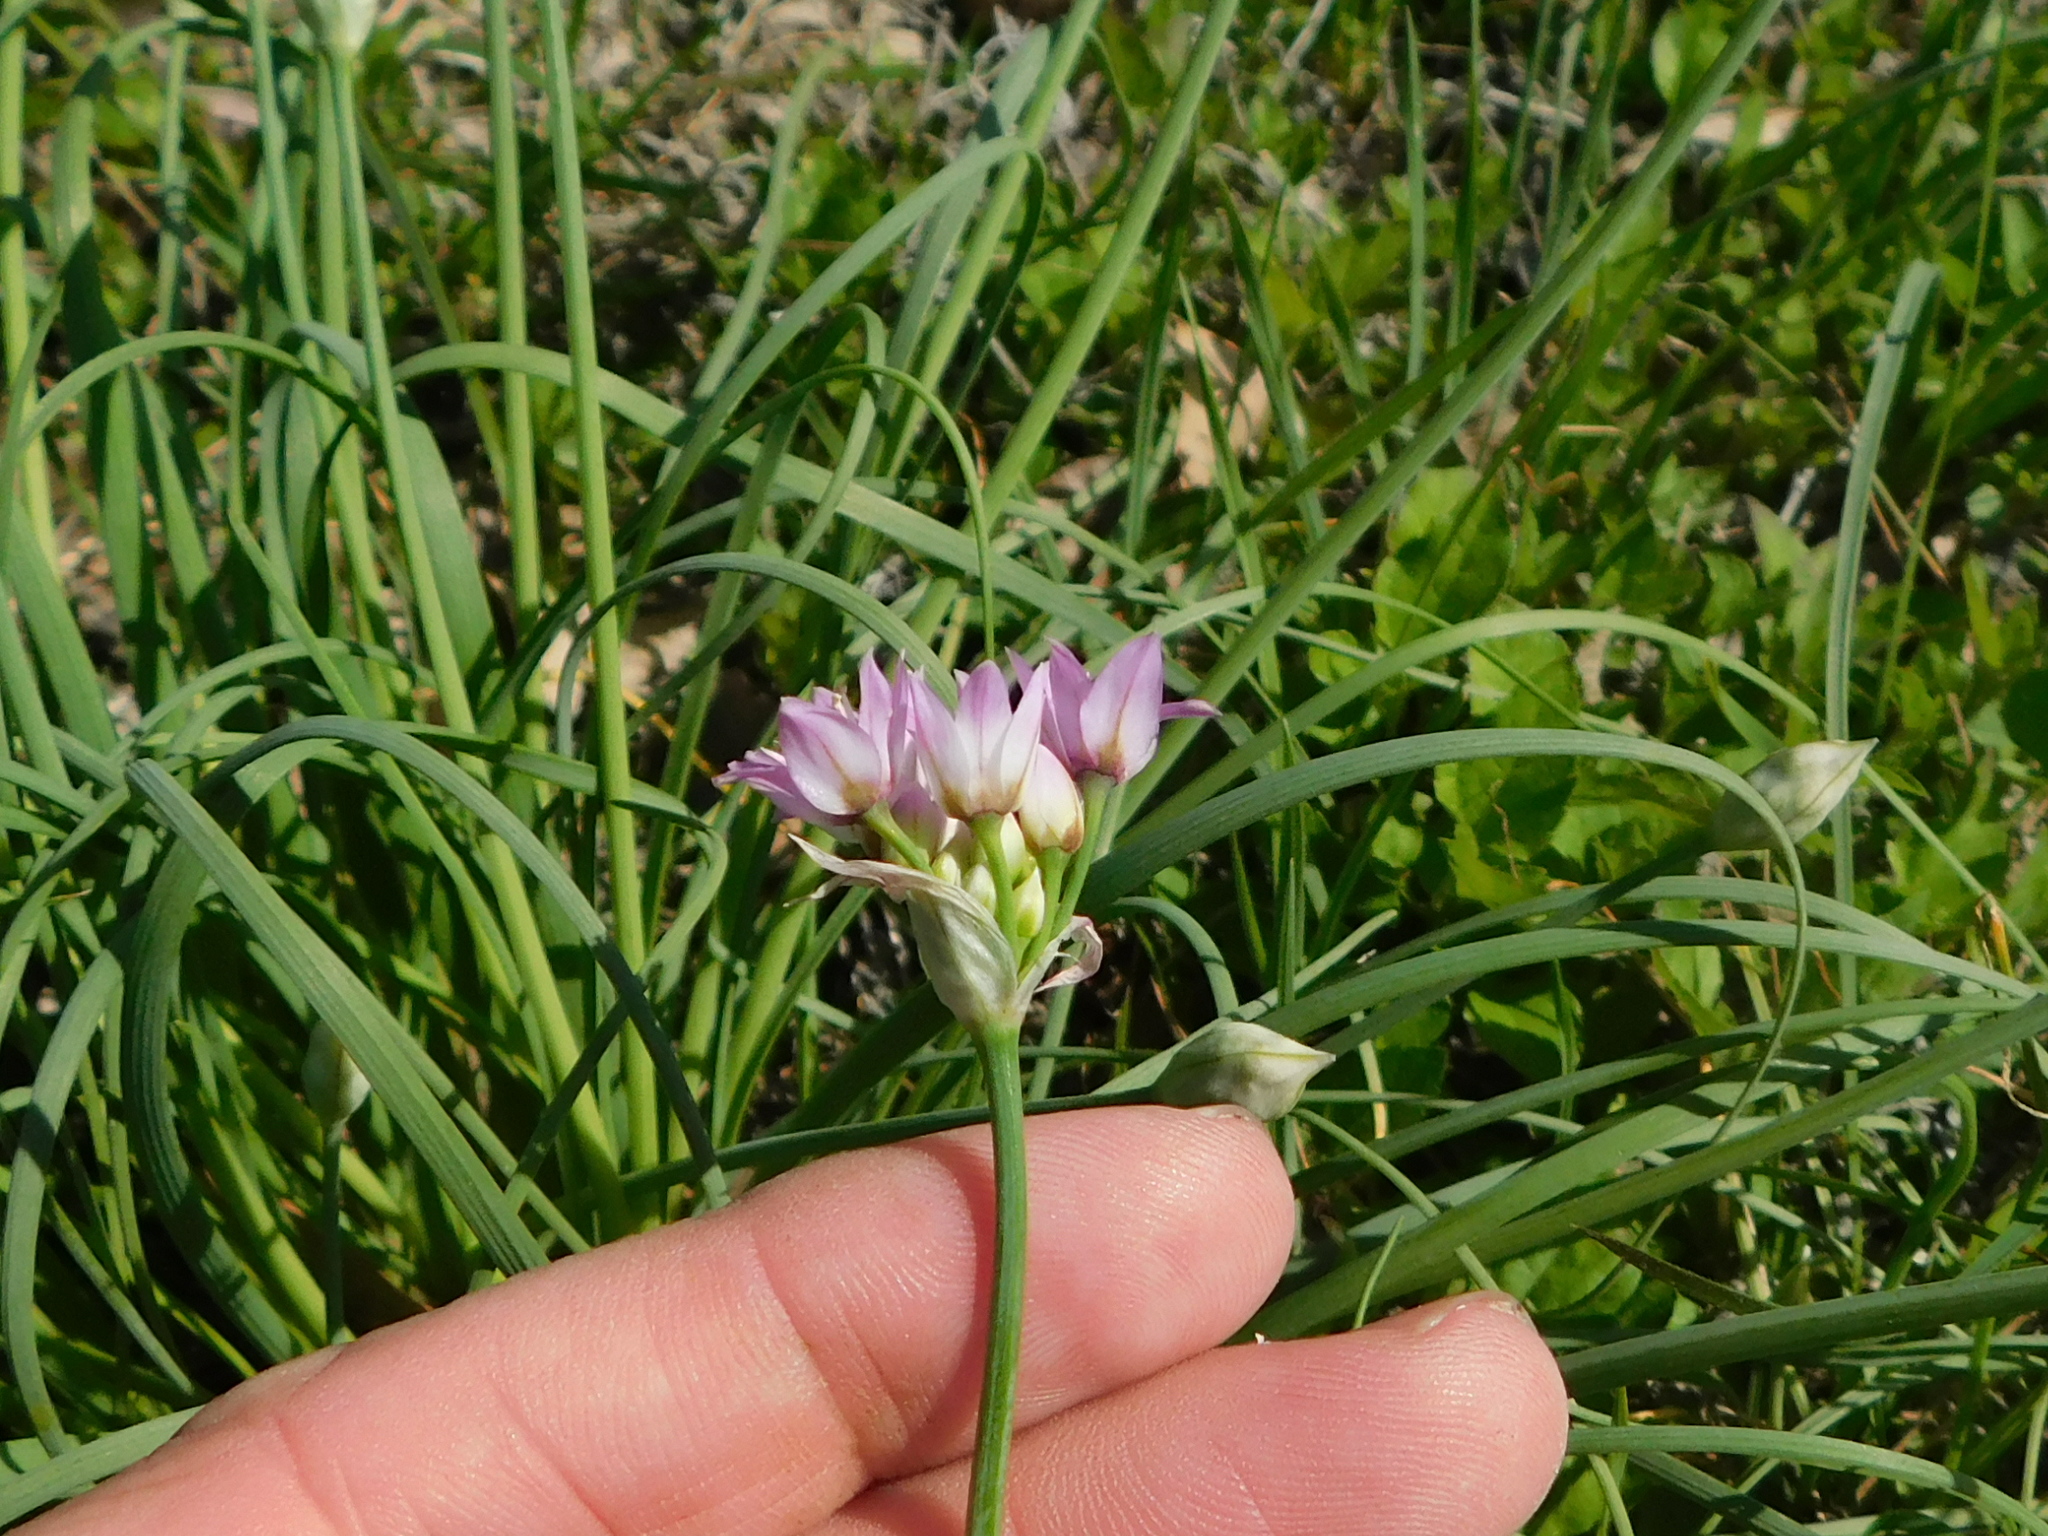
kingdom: Plantae
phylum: Tracheophyta
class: Liliopsida
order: Asparagales
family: Amaryllidaceae
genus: Allium
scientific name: Allium drummondii
